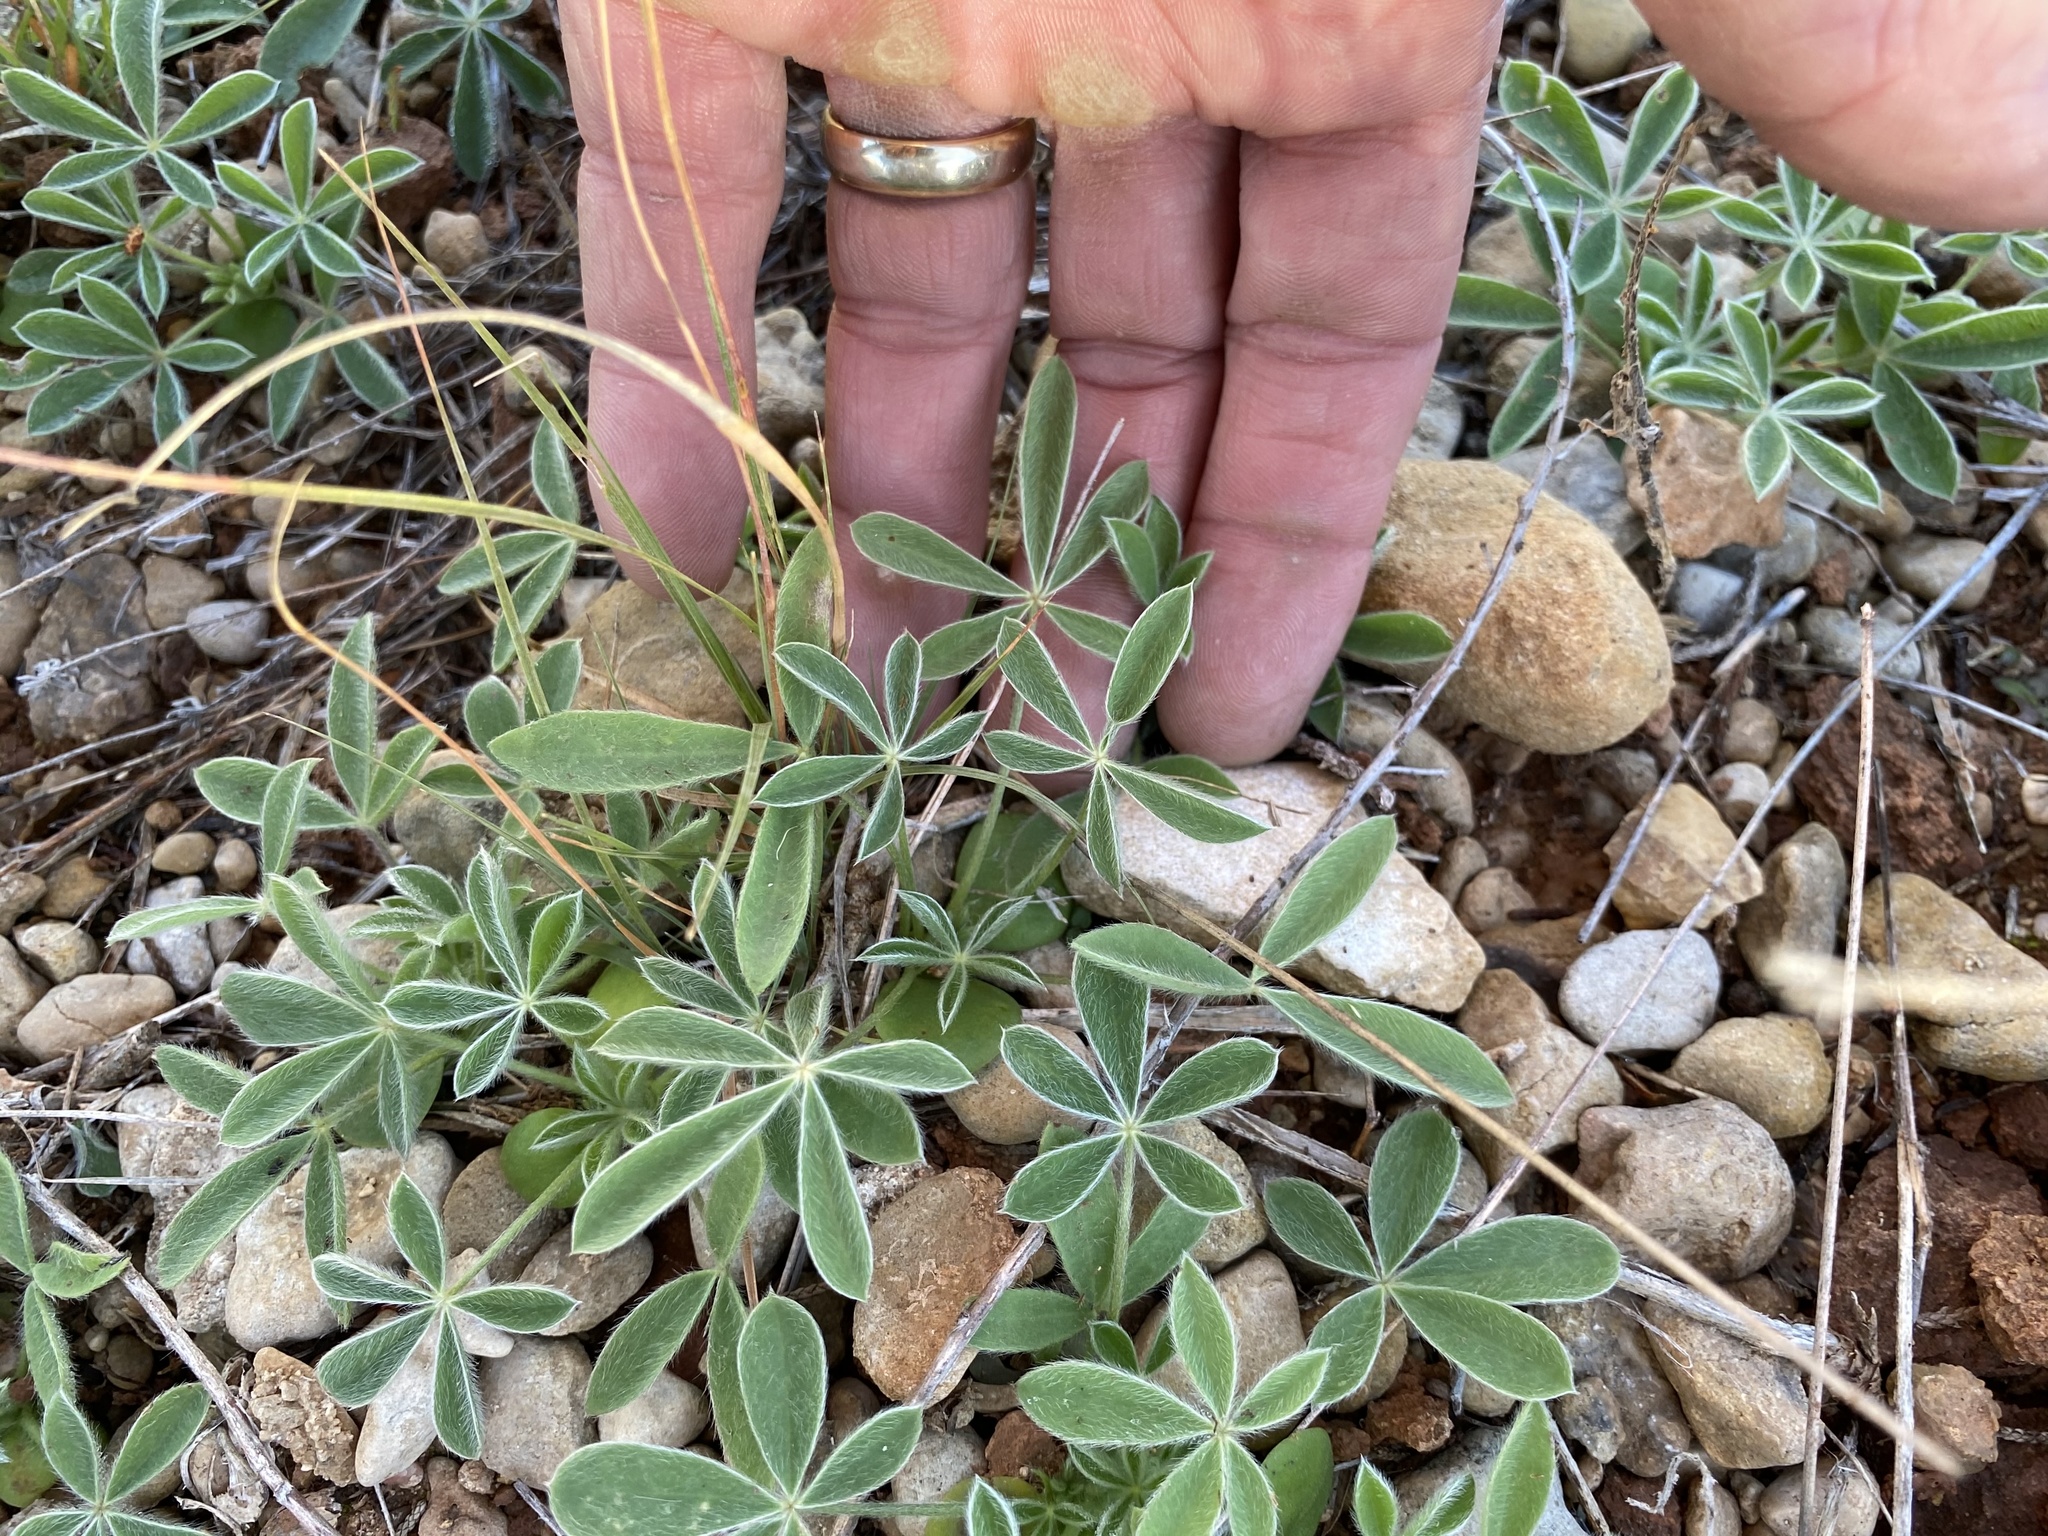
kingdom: Plantae
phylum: Tracheophyta
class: Magnoliopsida
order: Fabales
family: Fabaceae
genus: Lupinus
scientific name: Lupinus texensis
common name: Texas bluebonnet
